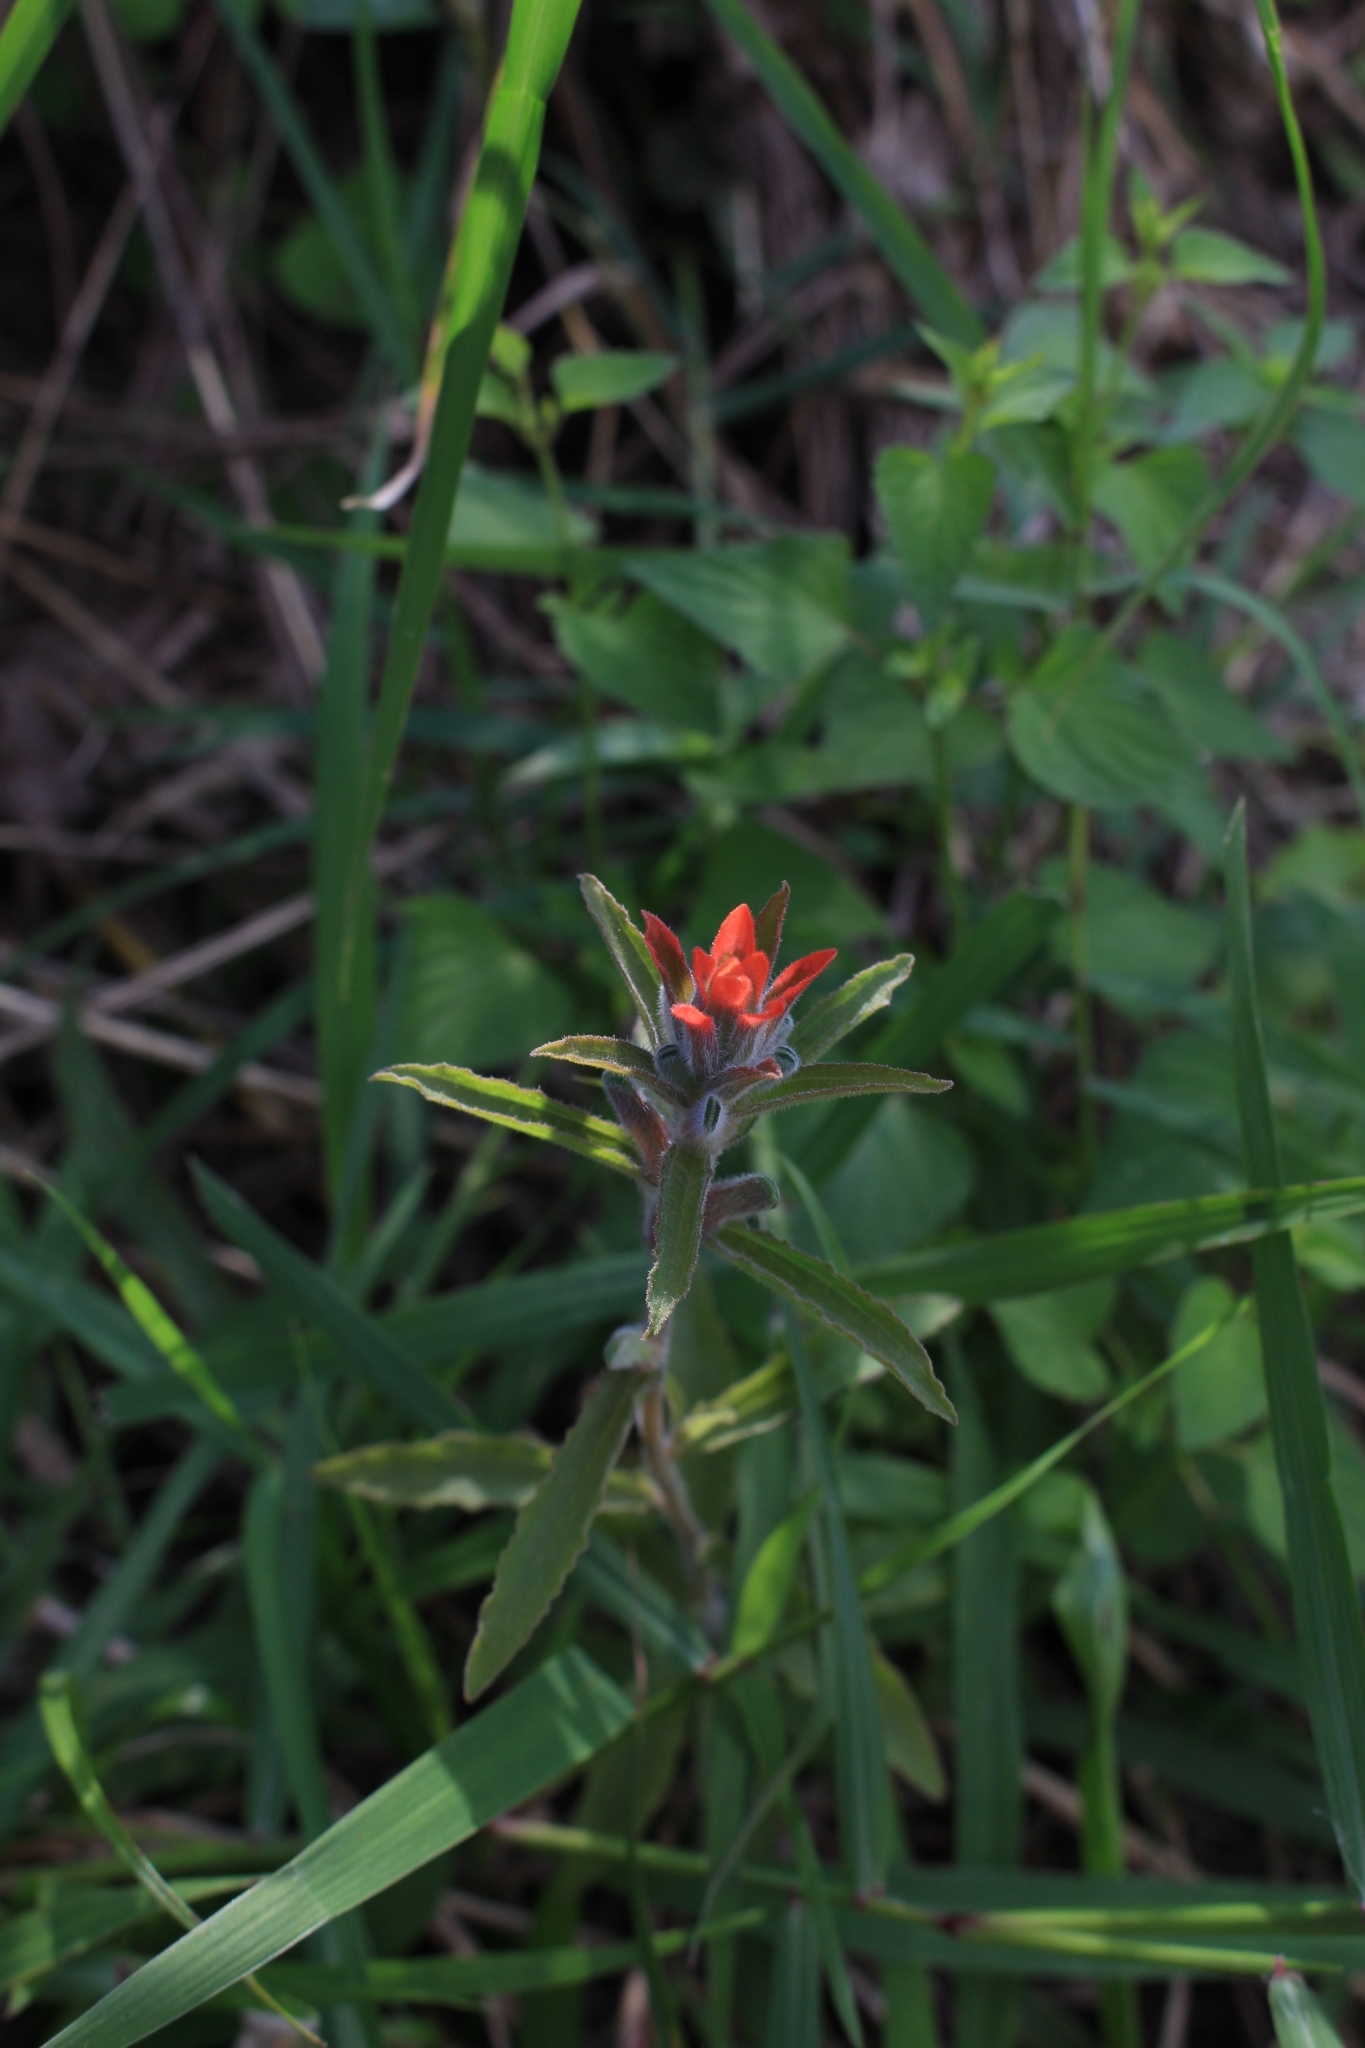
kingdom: Plantae
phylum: Tracheophyta
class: Magnoliopsida
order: Lamiales
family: Orobanchaceae
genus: Castilleja
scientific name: Castilleja arvensis
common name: Indian paintbrush
